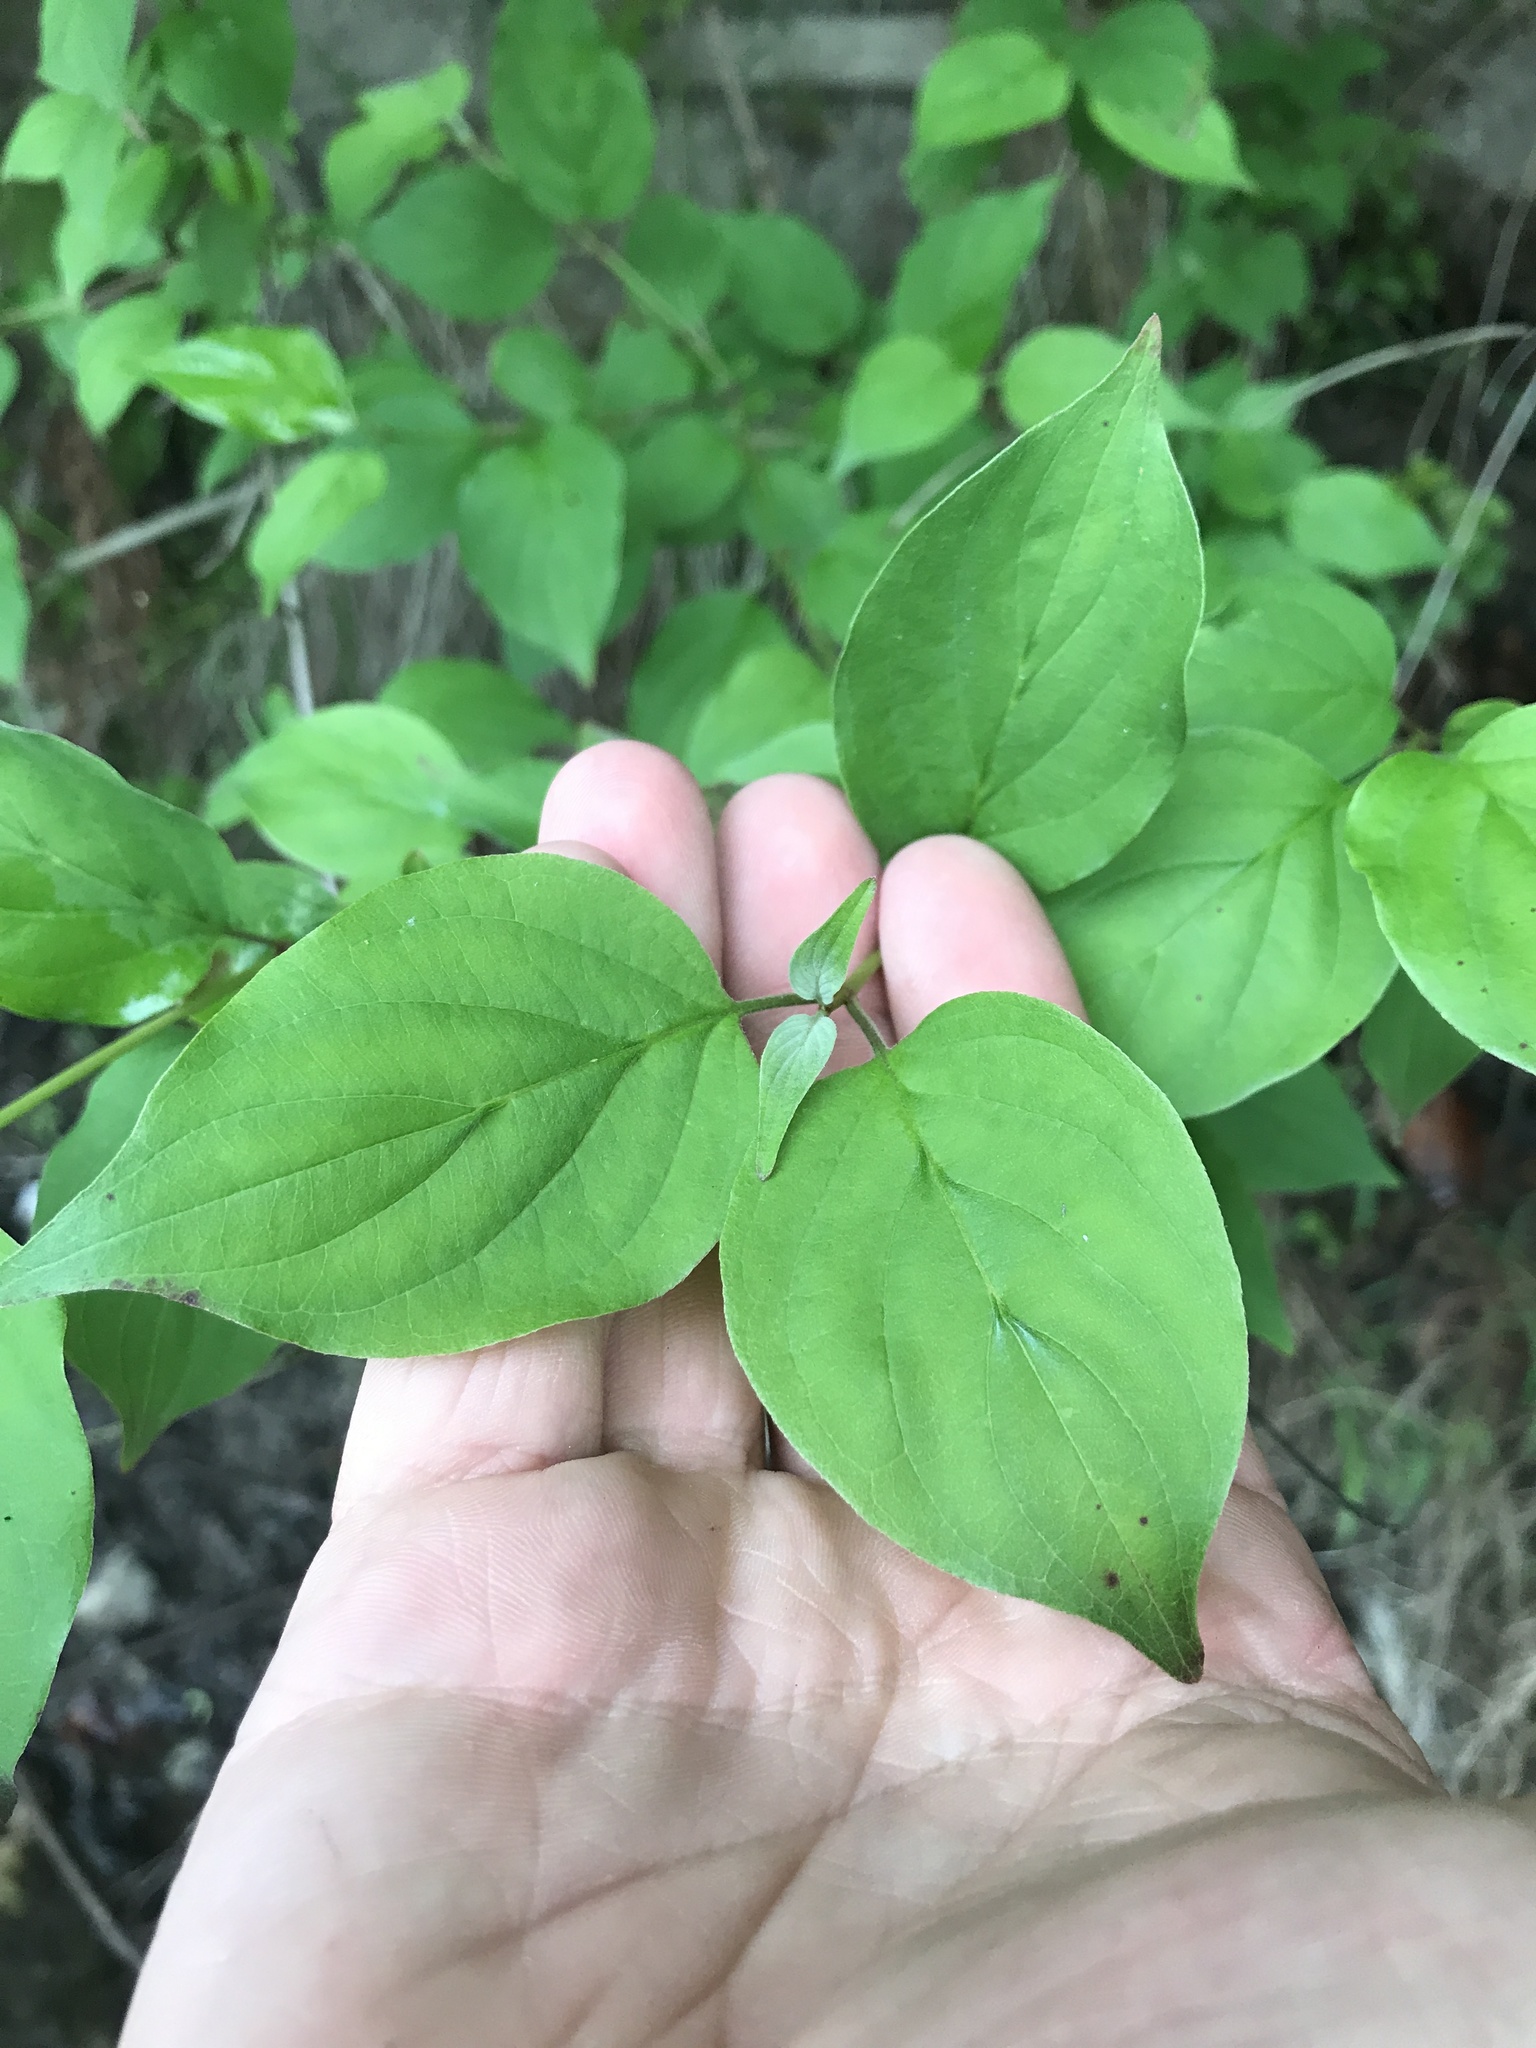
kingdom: Plantae
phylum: Tracheophyta
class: Magnoliopsida
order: Cornales
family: Cornaceae
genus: Cornus
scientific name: Cornus drummondii
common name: Rough-leaf dogwood
